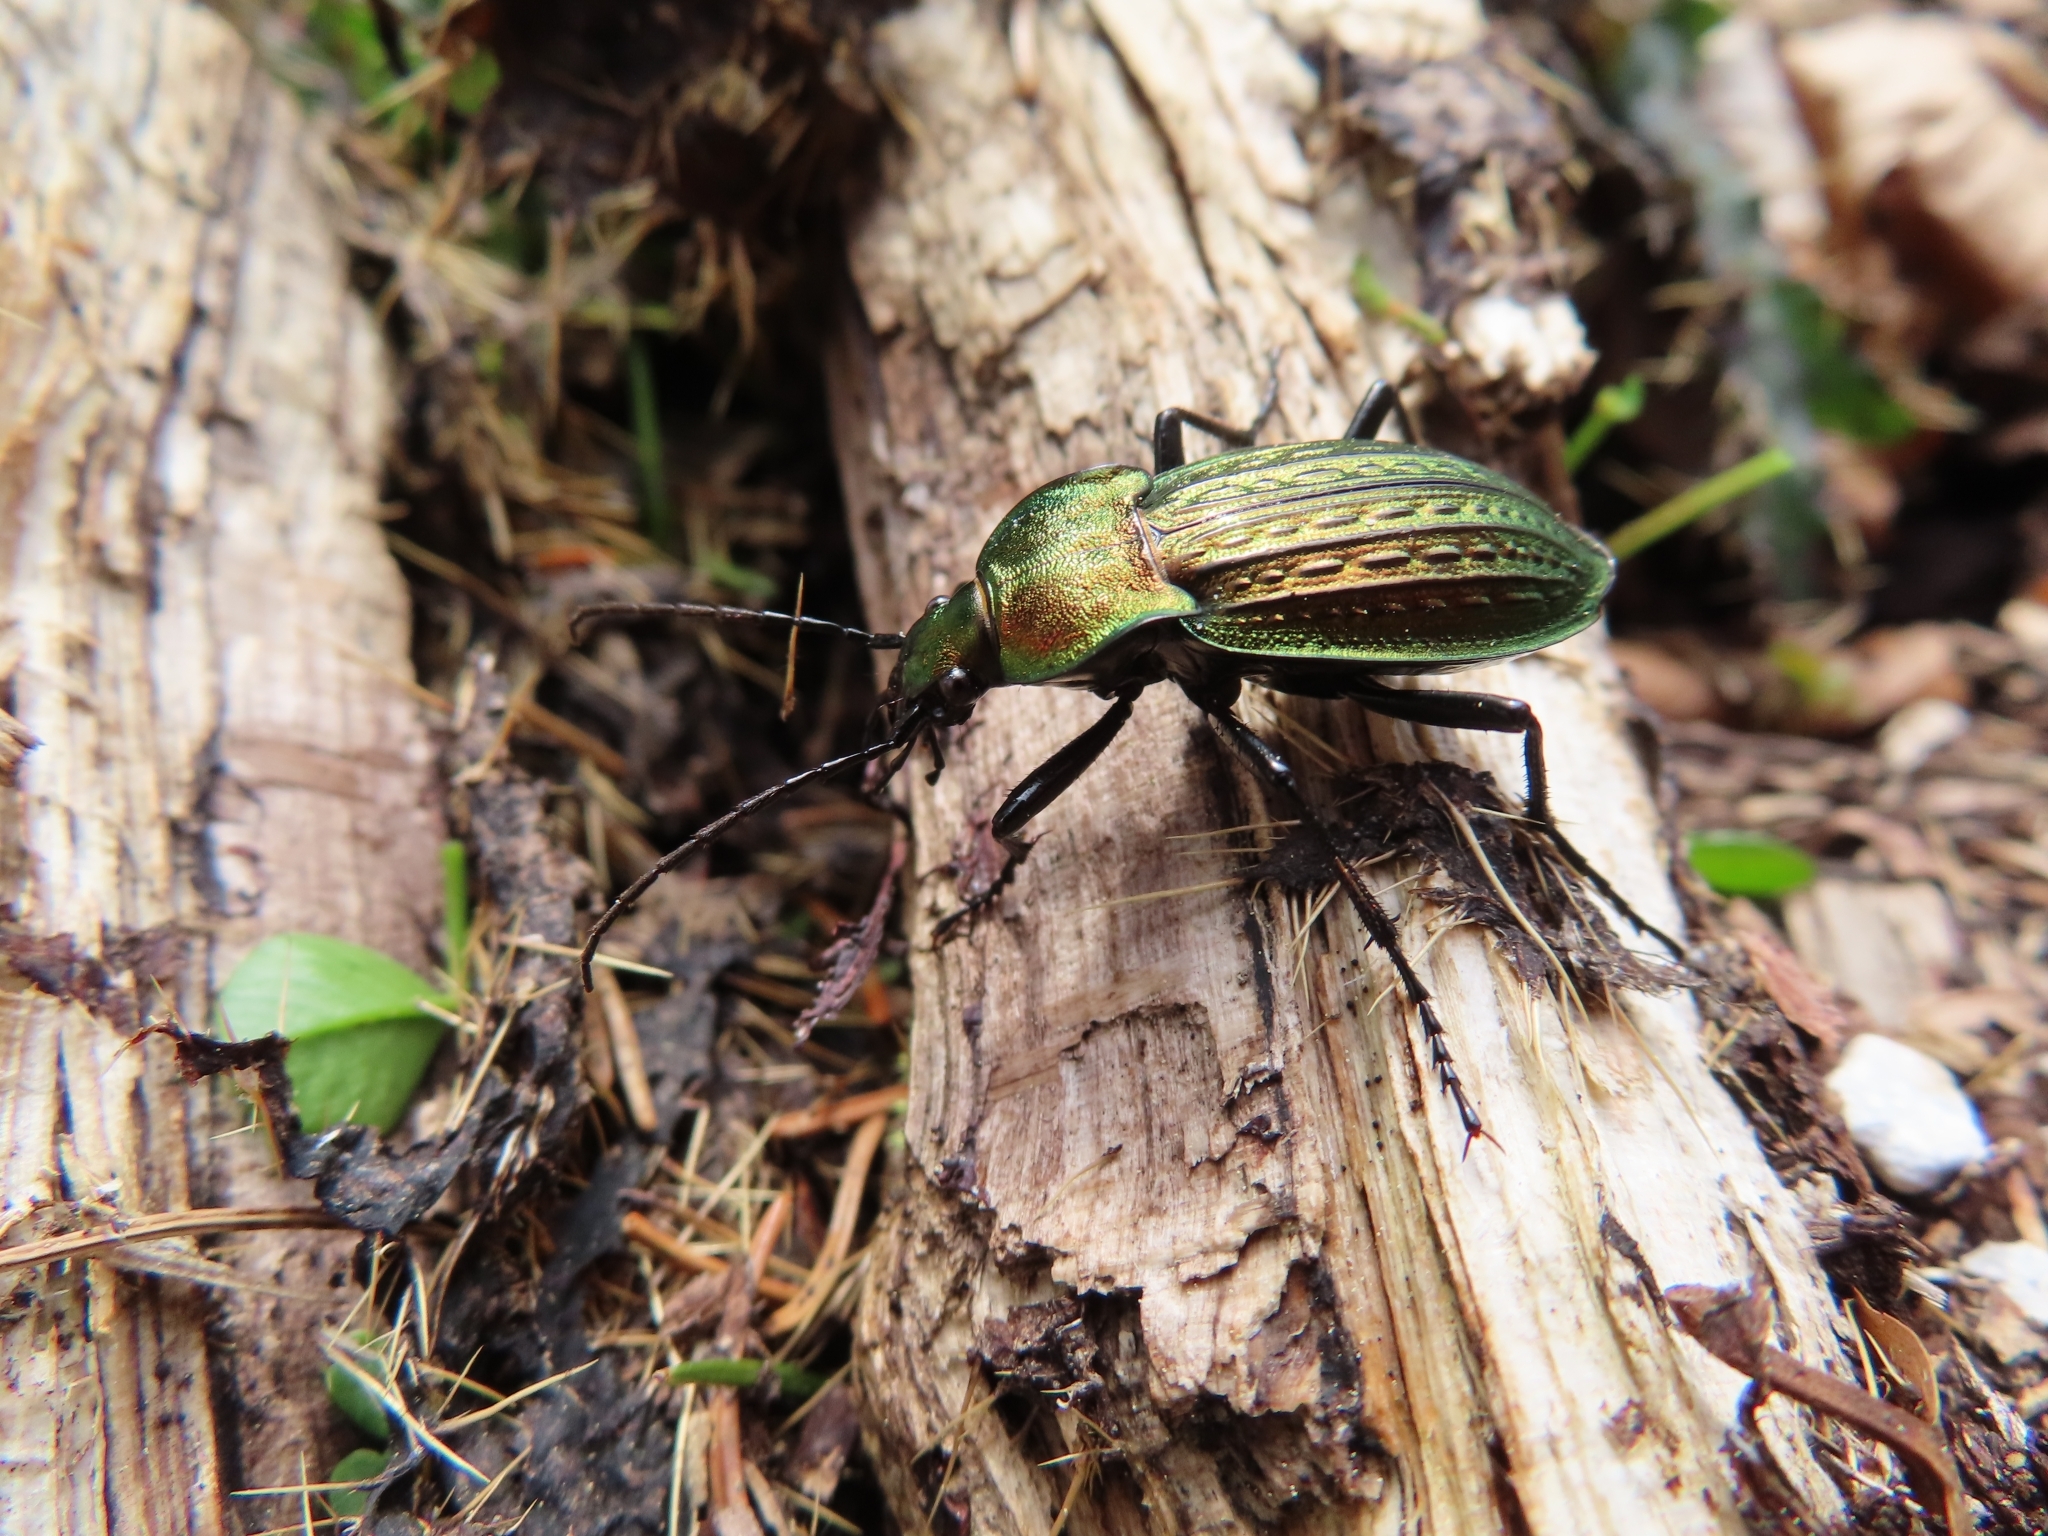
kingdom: Animalia
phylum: Arthropoda
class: Insecta
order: Coleoptera
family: Carabidae
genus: Carabus
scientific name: Carabus ulrichii
